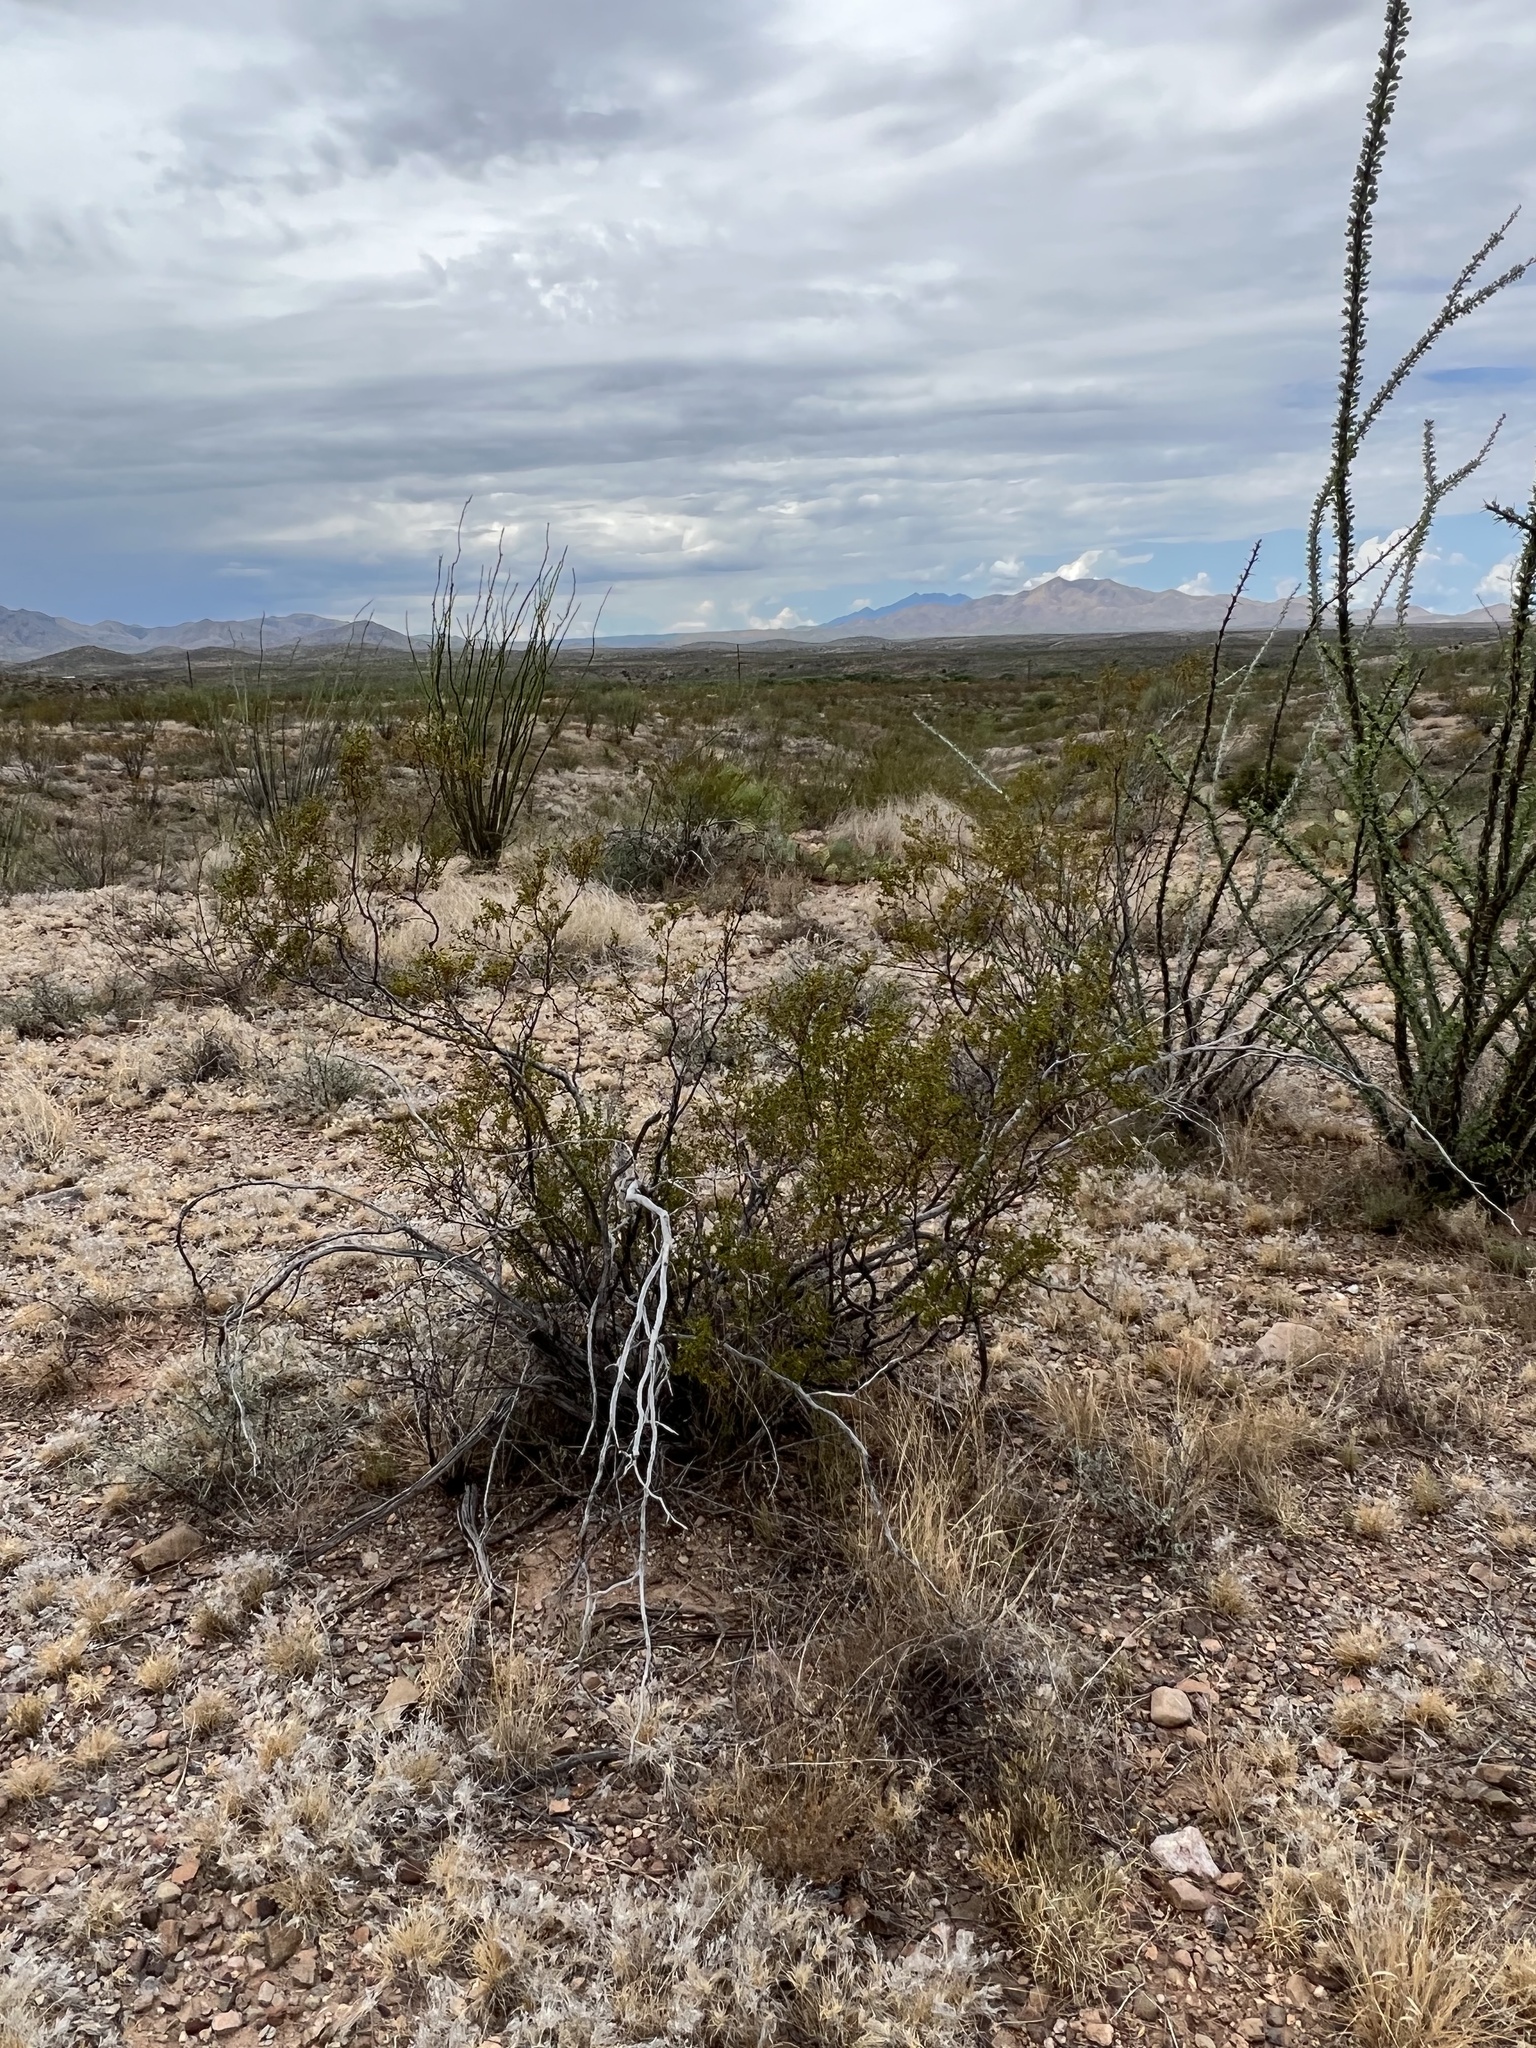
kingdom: Plantae
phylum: Tracheophyta
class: Magnoliopsida
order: Zygophyllales
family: Zygophyllaceae
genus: Larrea
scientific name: Larrea tridentata
